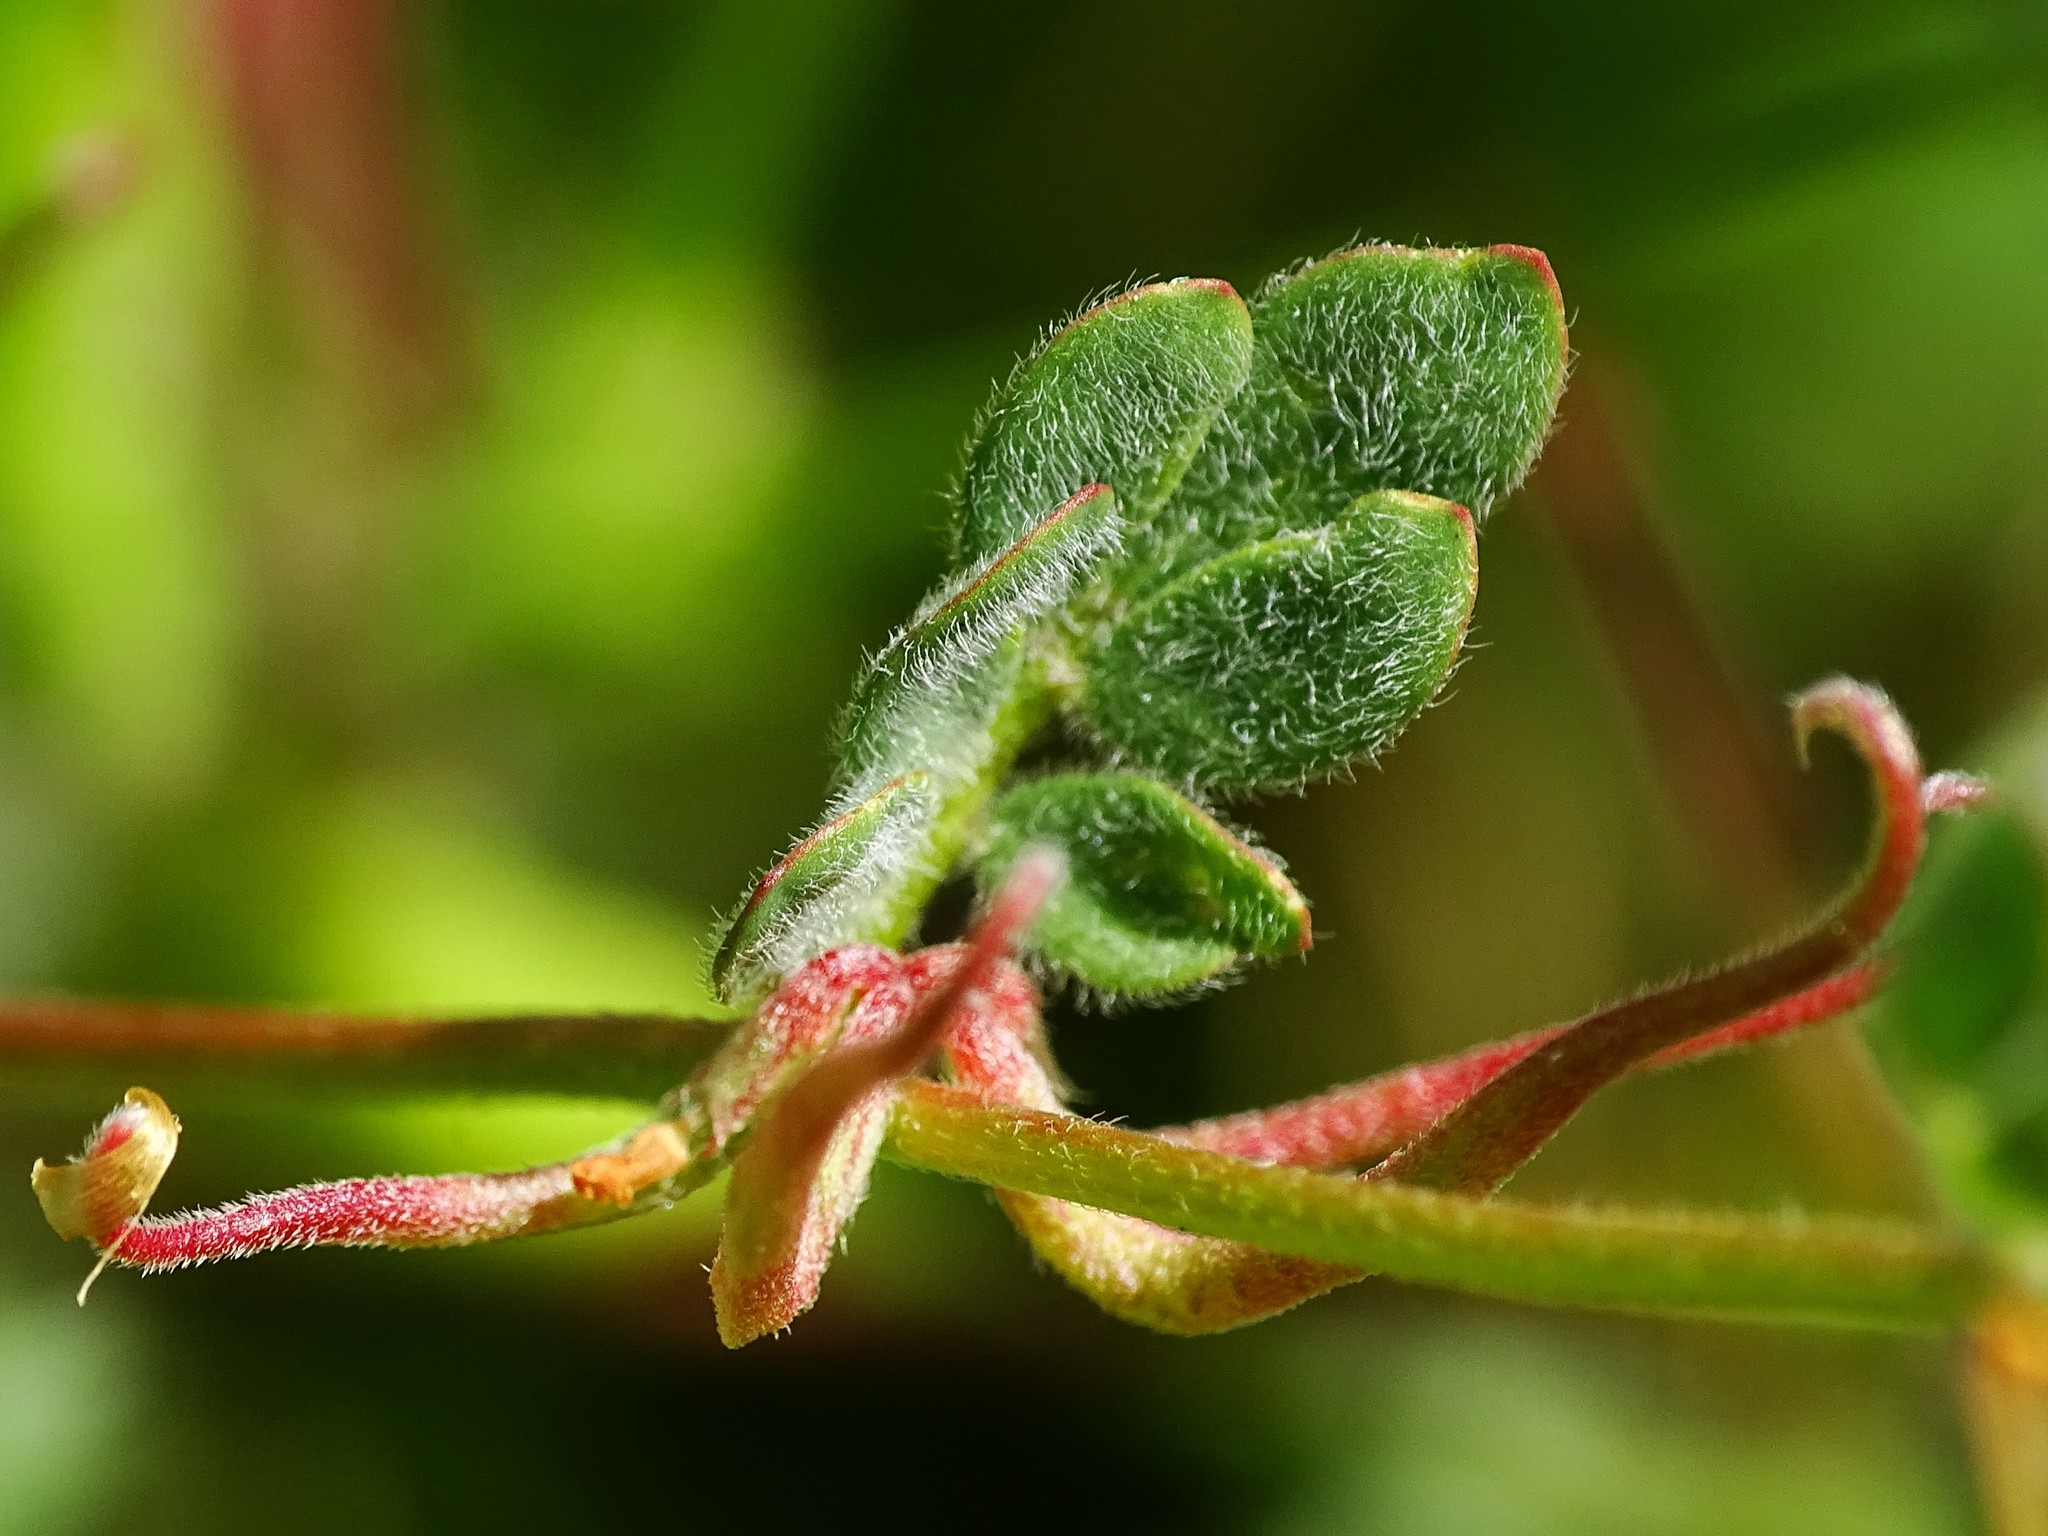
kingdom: Plantae
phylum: Tracheophyta
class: Magnoliopsida
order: Fabales
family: Fabaceae
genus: Acmispon
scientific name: Acmispon micranthus
